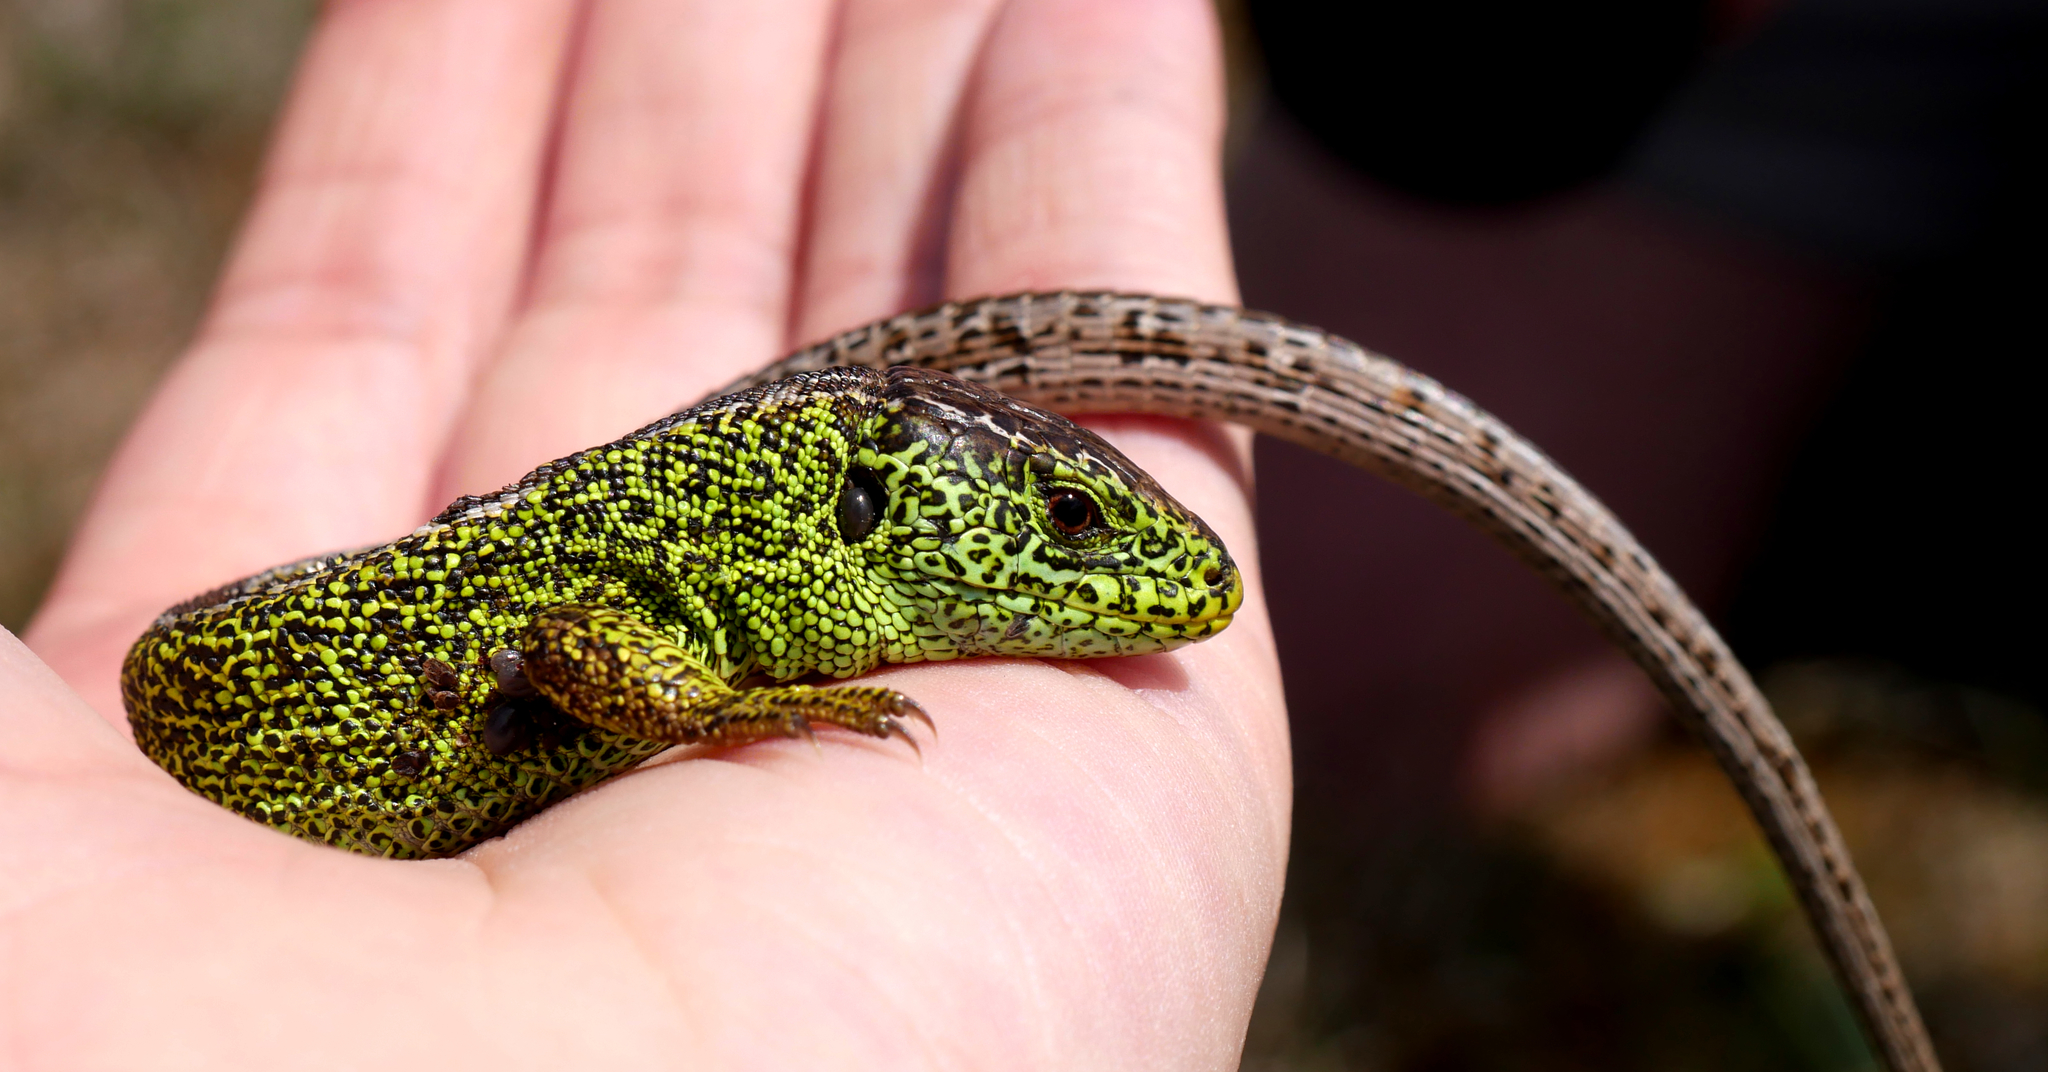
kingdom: Animalia
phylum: Chordata
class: Squamata
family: Lacertidae
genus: Lacerta
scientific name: Lacerta agilis
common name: Sand lizard
